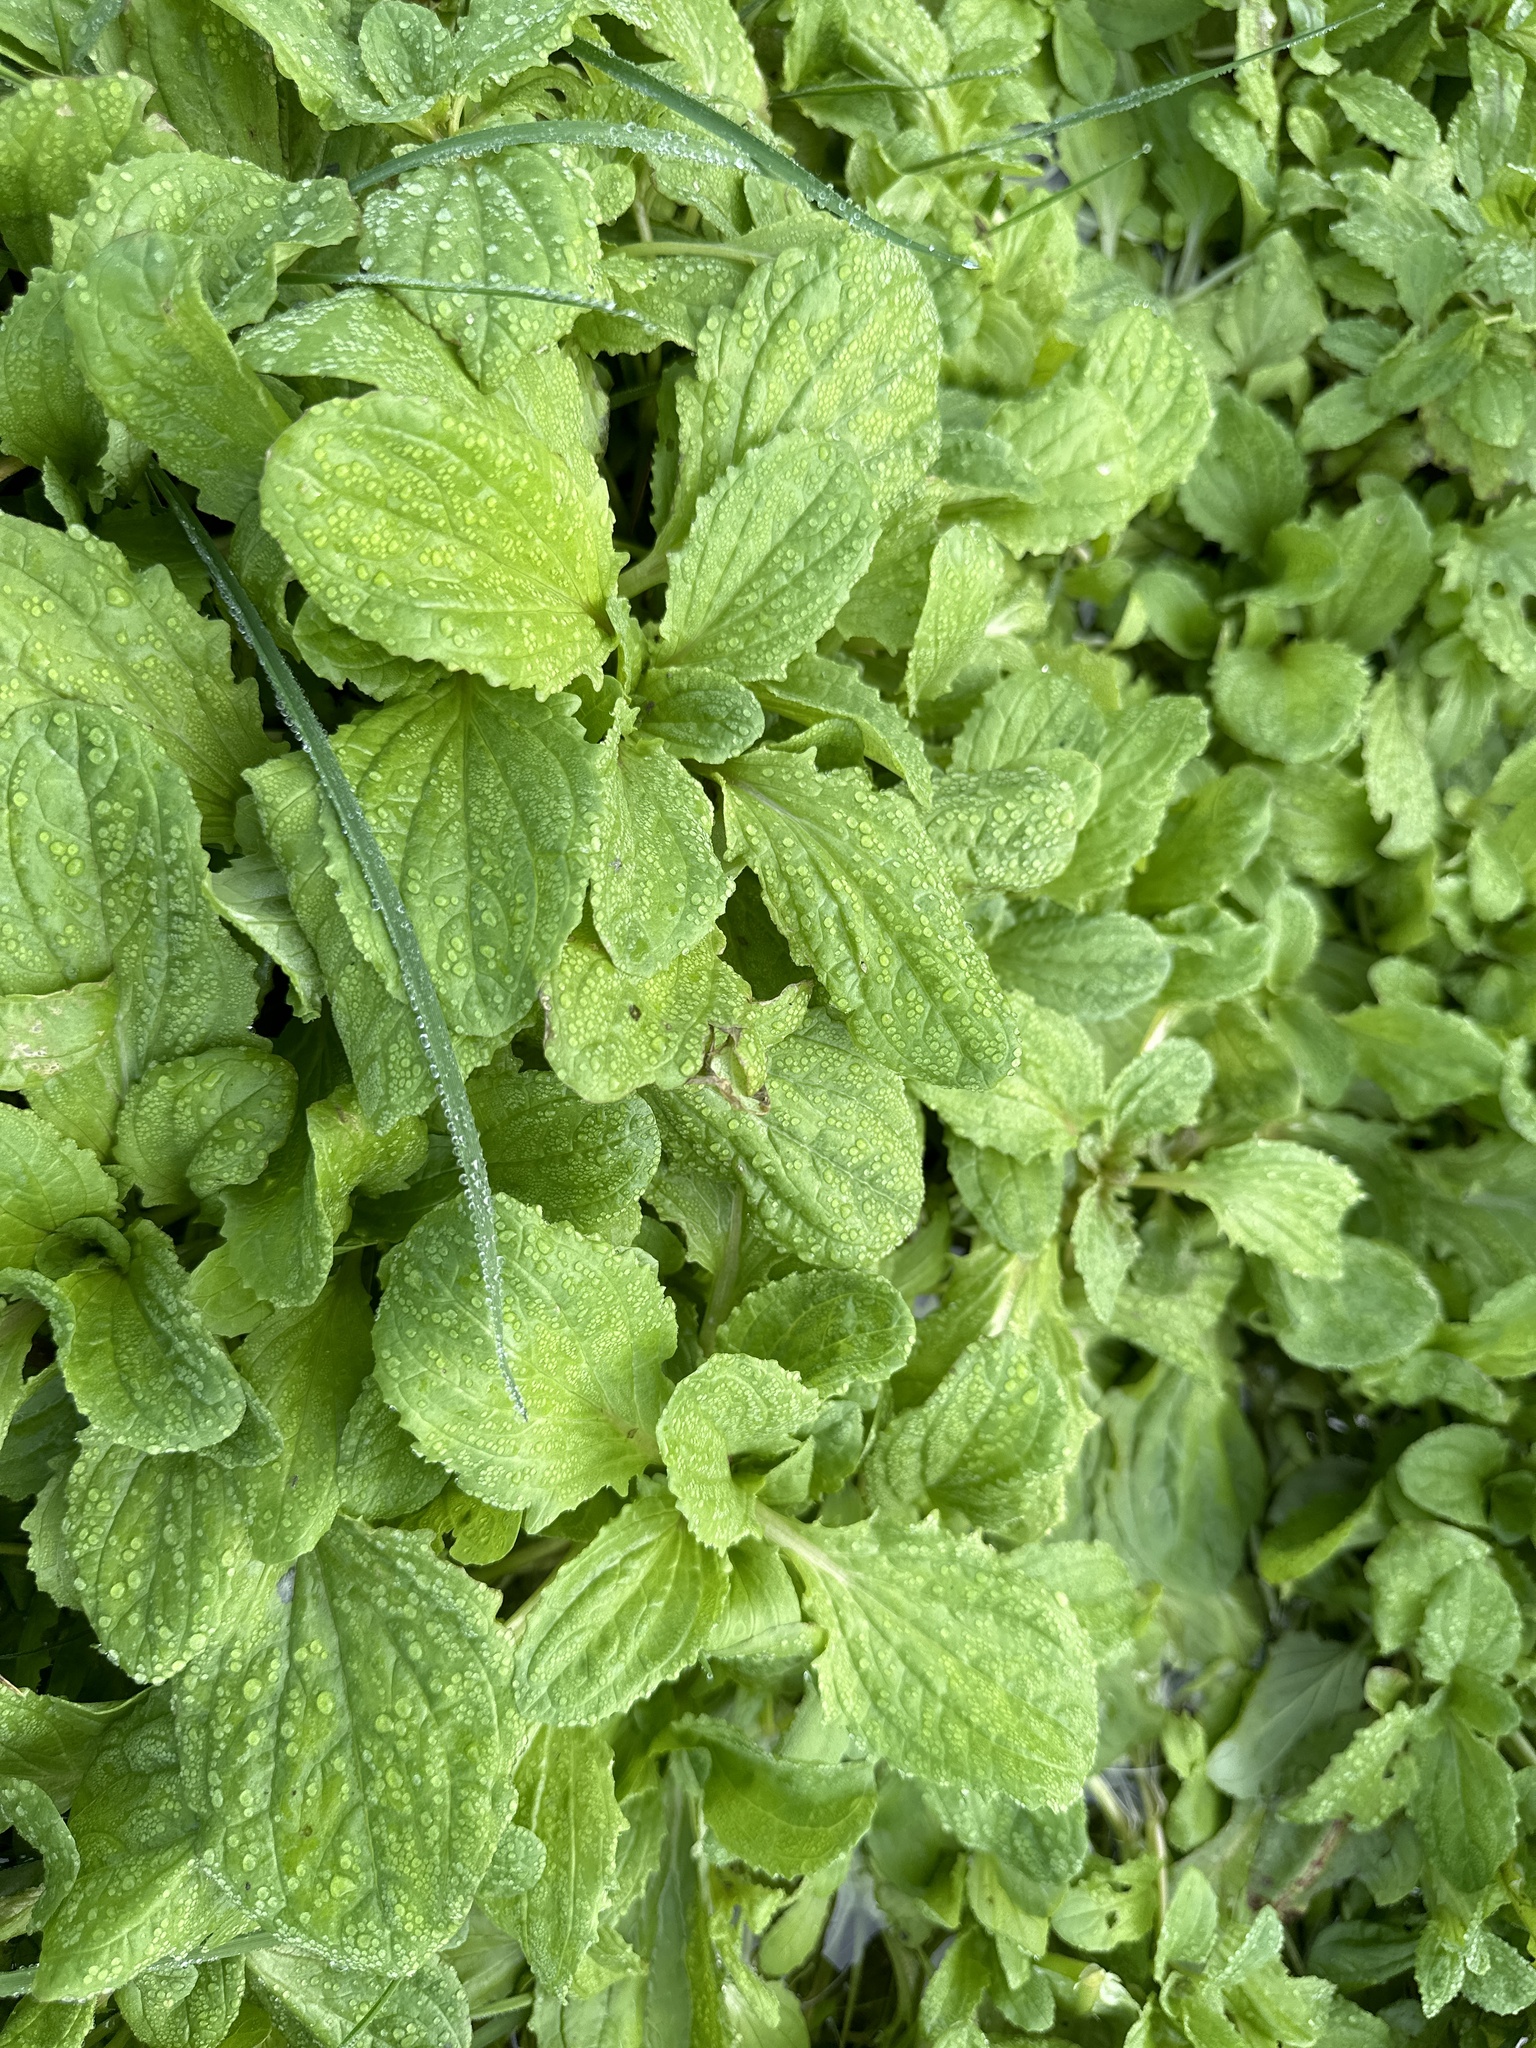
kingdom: Plantae
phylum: Tracheophyta
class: Magnoliopsida
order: Lamiales
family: Phrymaceae
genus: Erythranthe
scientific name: Erythranthe guttata
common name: Monkeyflower
